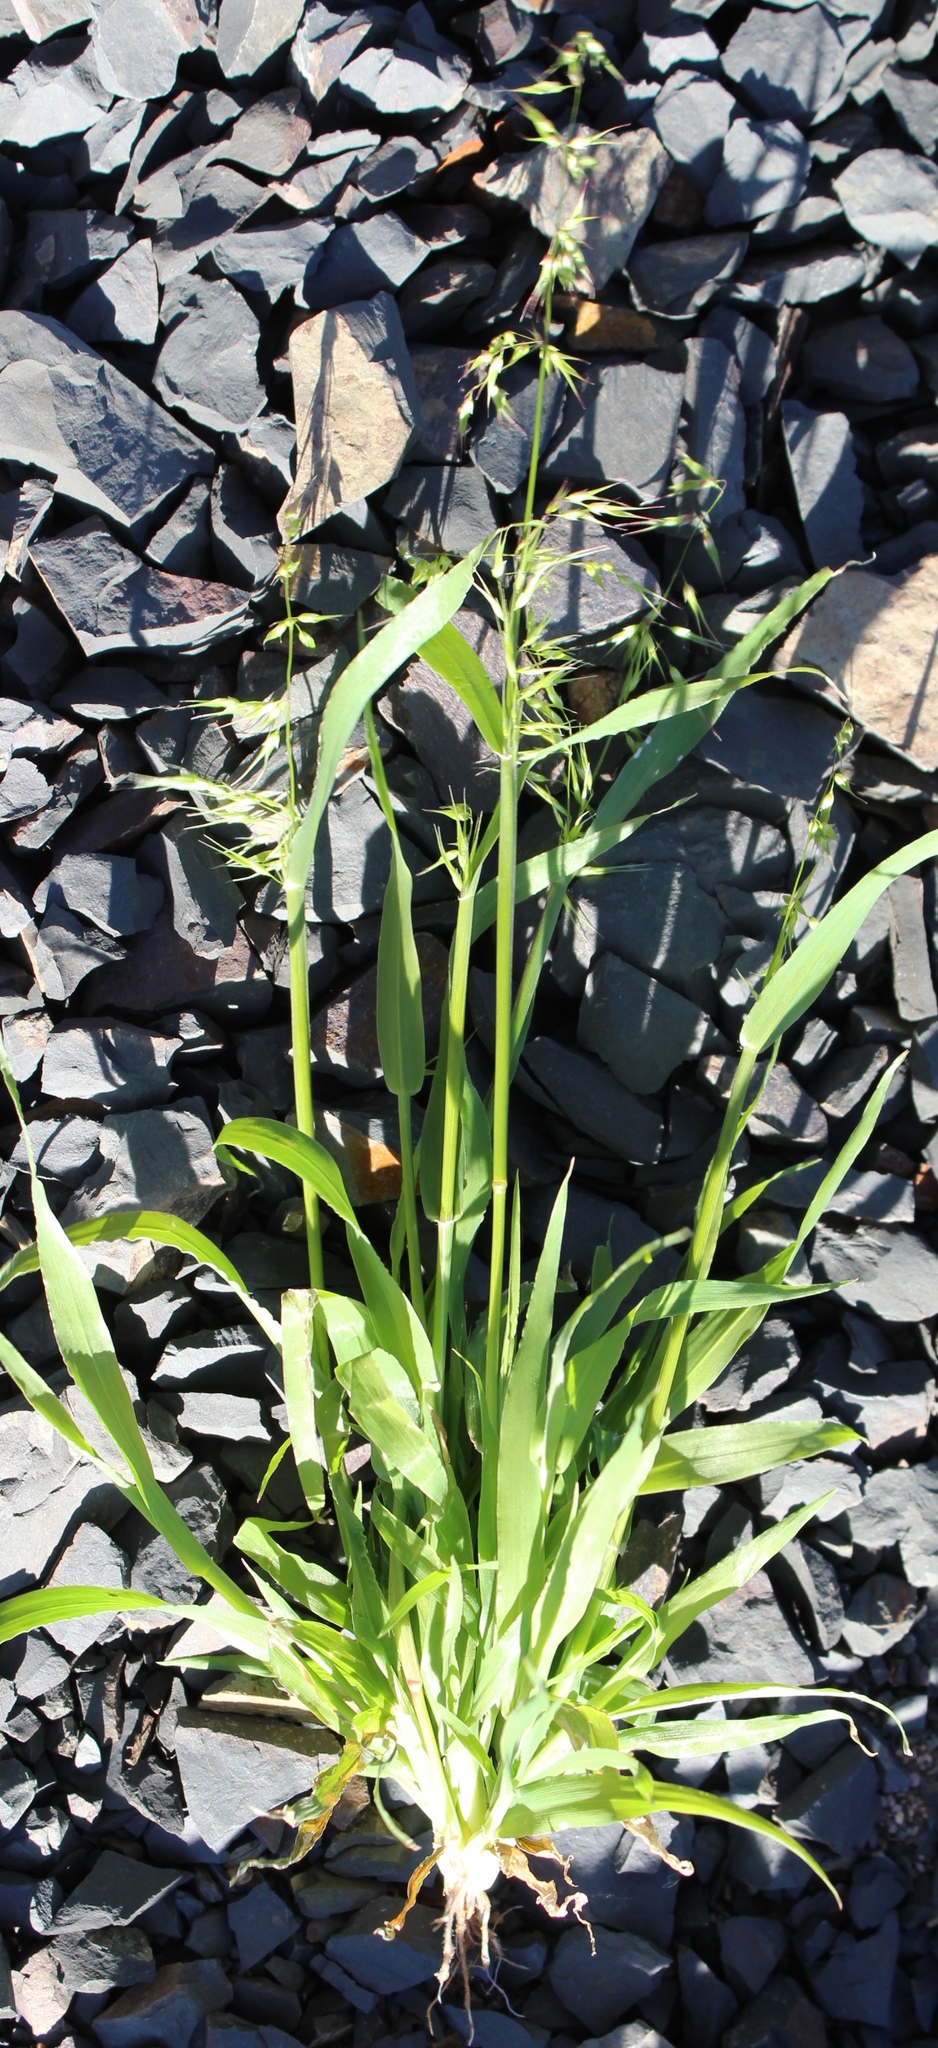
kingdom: Plantae
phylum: Tracheophyta
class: Liliopsida
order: Poales
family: Poaceae
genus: Ehrharta
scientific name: Ehrharta longiflora
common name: Longflowered veldtgrass
